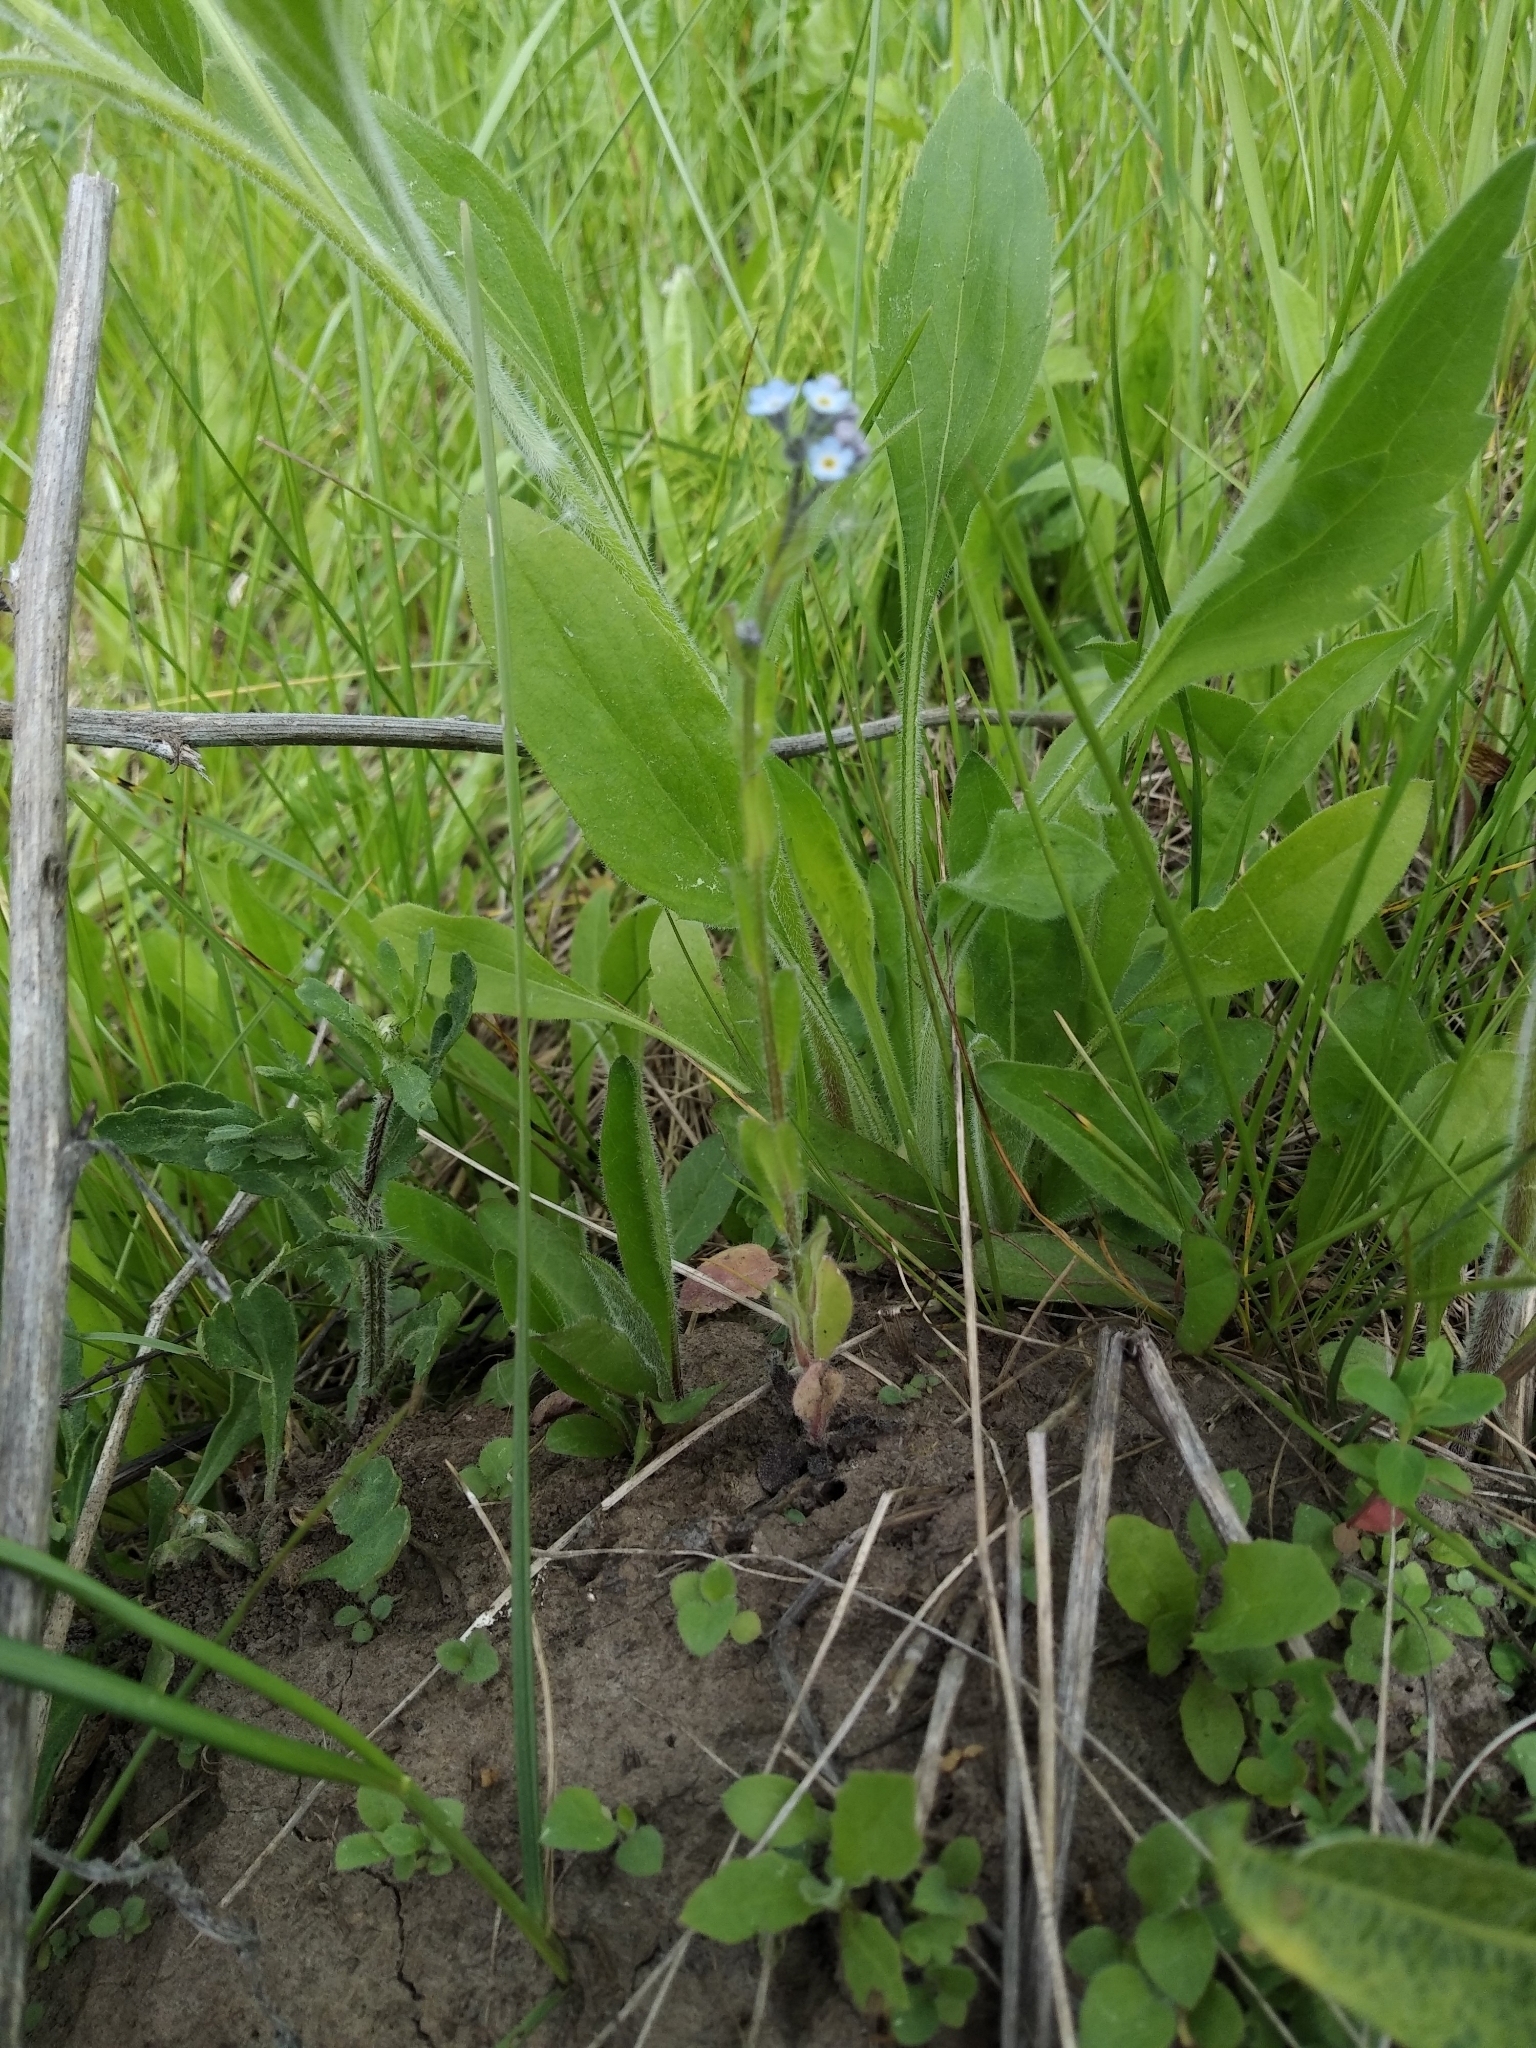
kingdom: Plantae
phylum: Tracheophyta
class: Magnoliopsida
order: Boraginales
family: Boraginaceae
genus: Myosotis
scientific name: Myosotis arvensis
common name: Field forget-me-not
